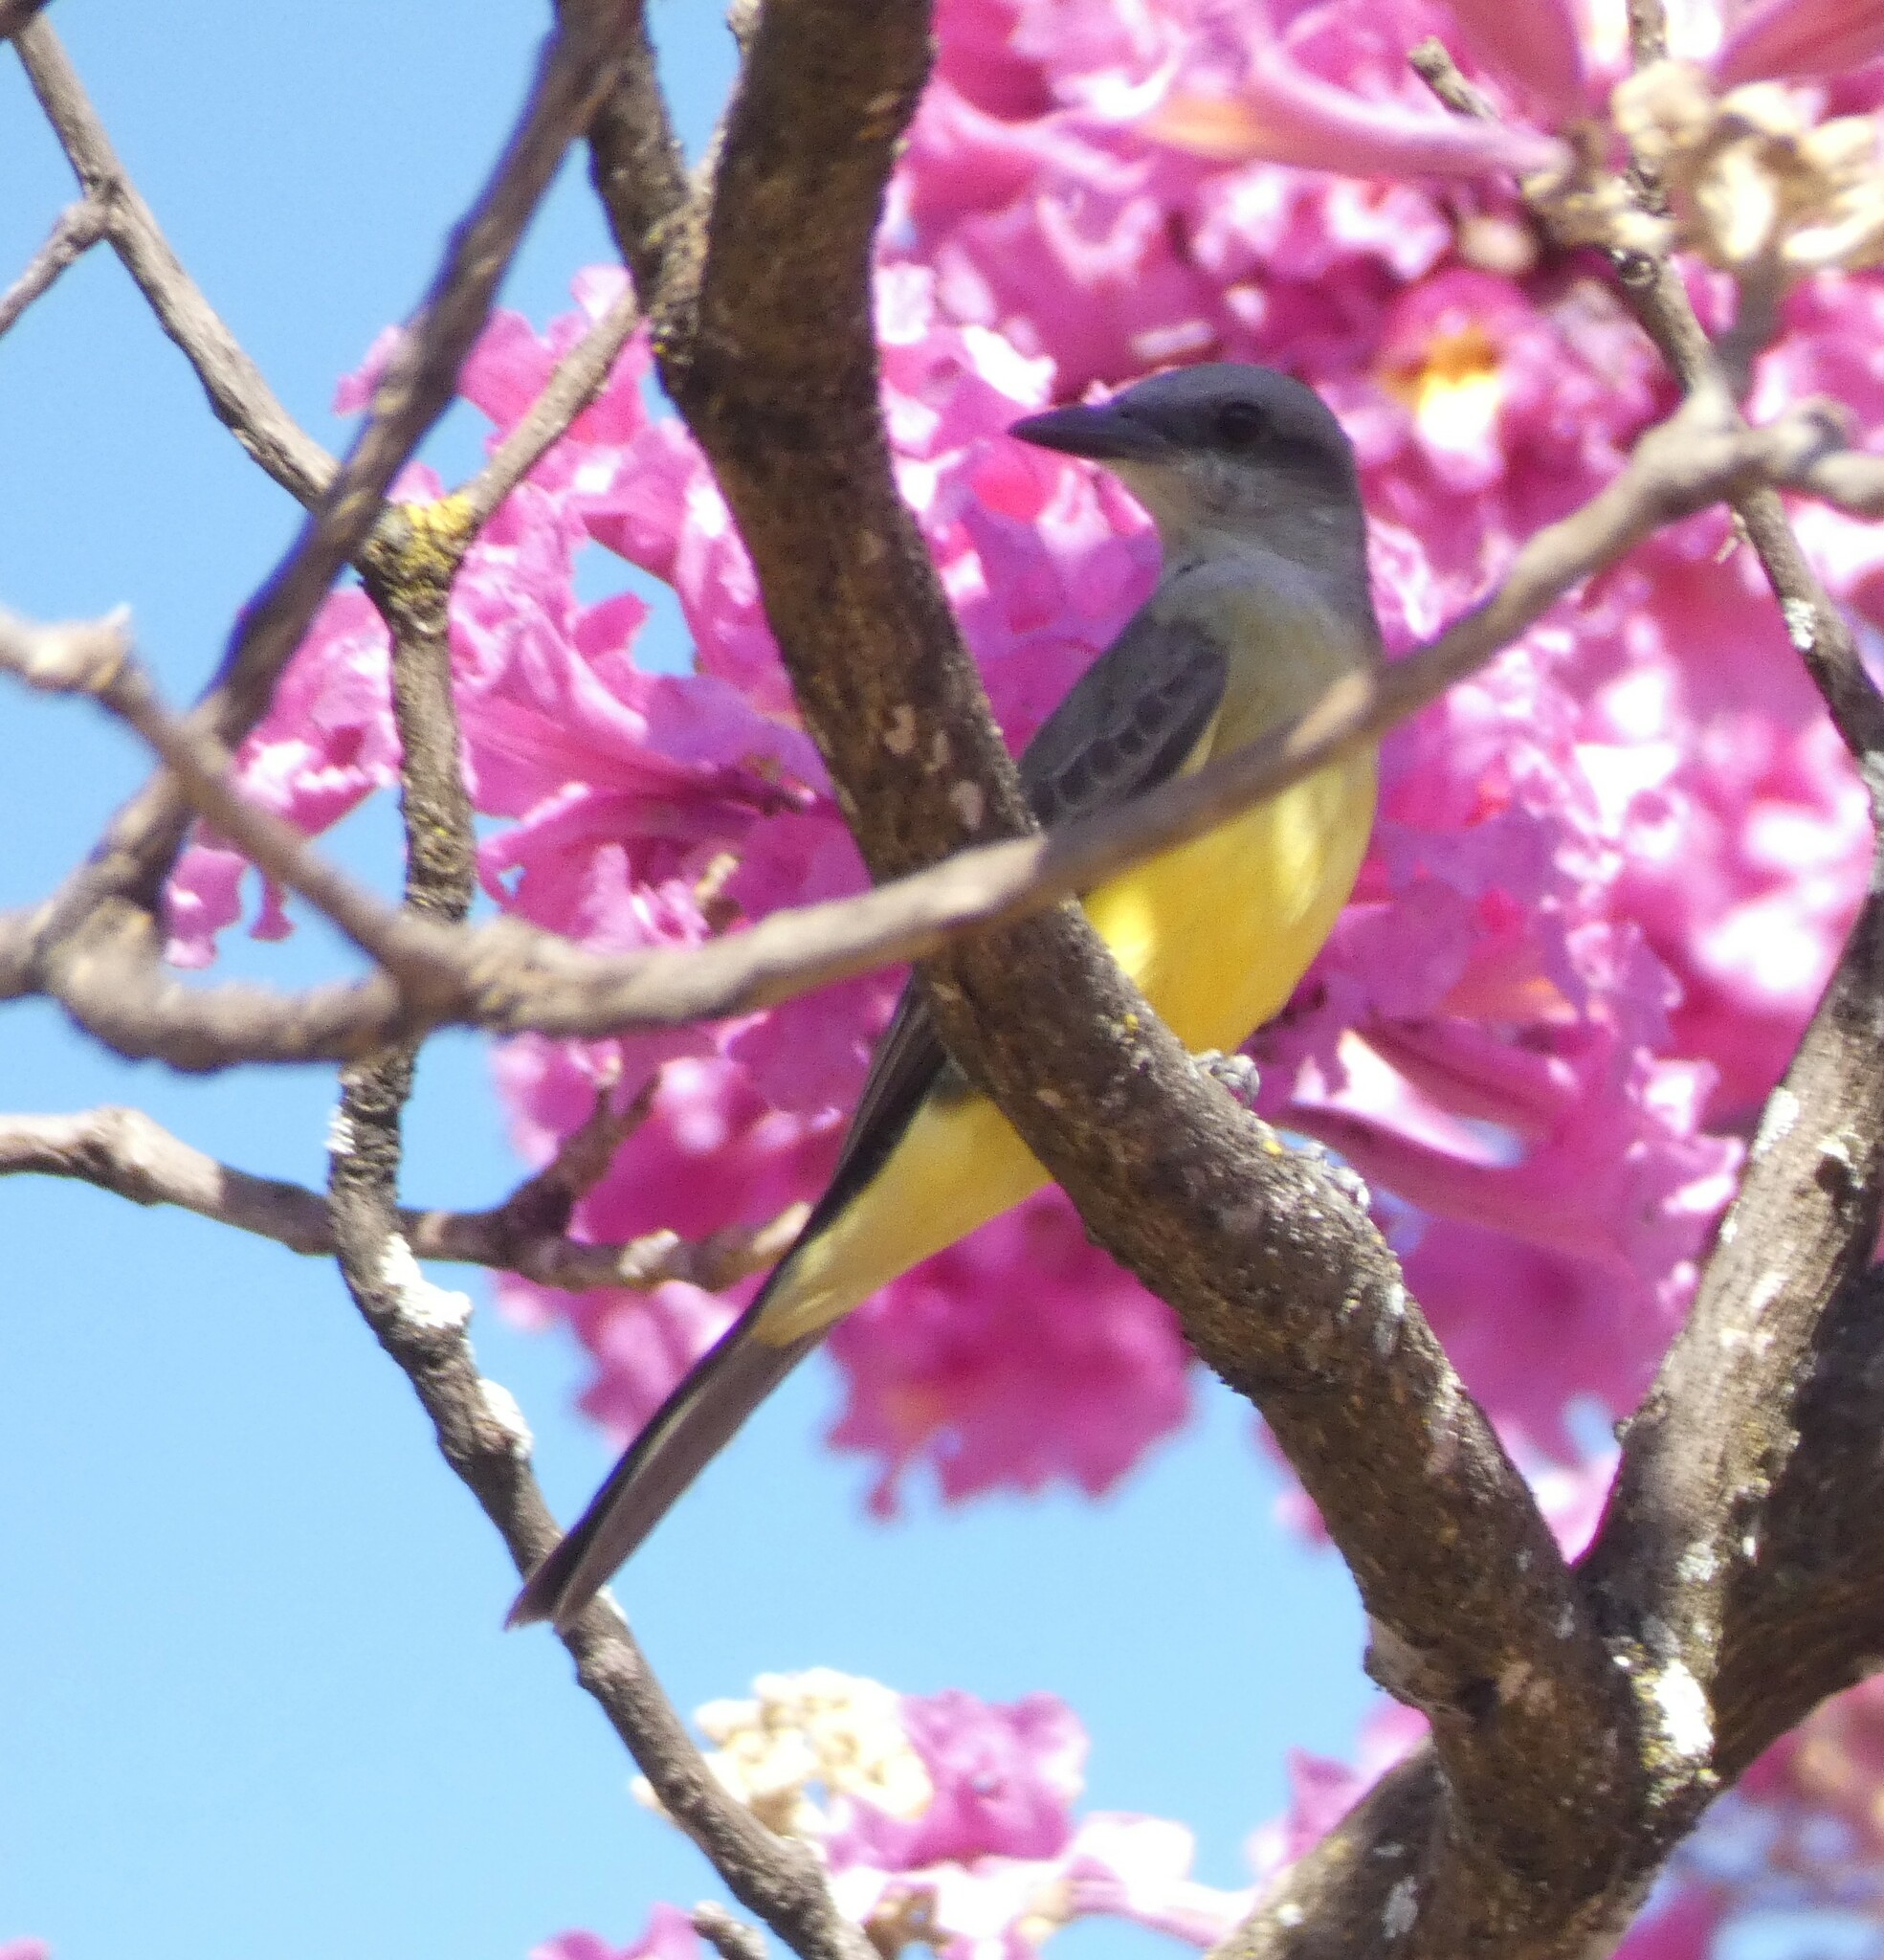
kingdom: Animalia
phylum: Chordata
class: Aves
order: Passeriformes
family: Tyrannidae
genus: Tyrannus
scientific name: Tyrannus melancholicus
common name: Tropical kingbird
